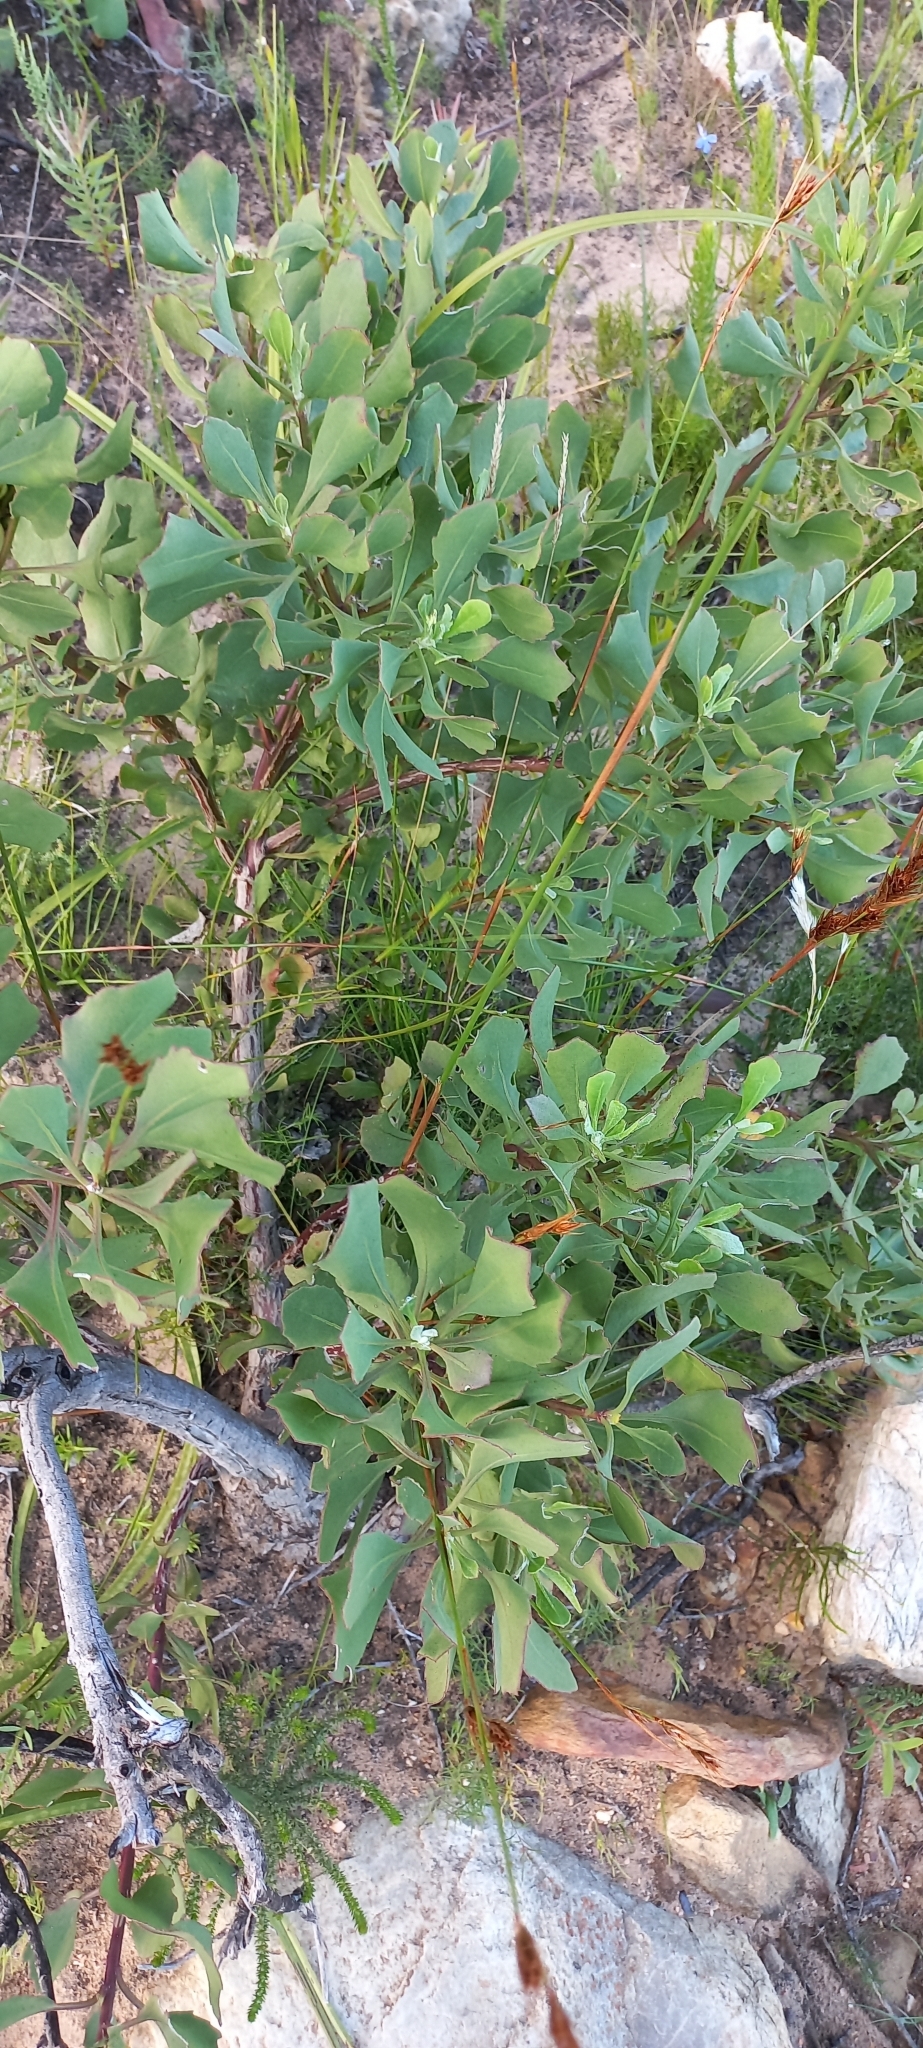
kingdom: Plantae
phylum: Tracheophyta
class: Magnoliopsida
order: Asterales
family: Asteraceae
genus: Osteospermum
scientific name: Osteospermum moniliferum
